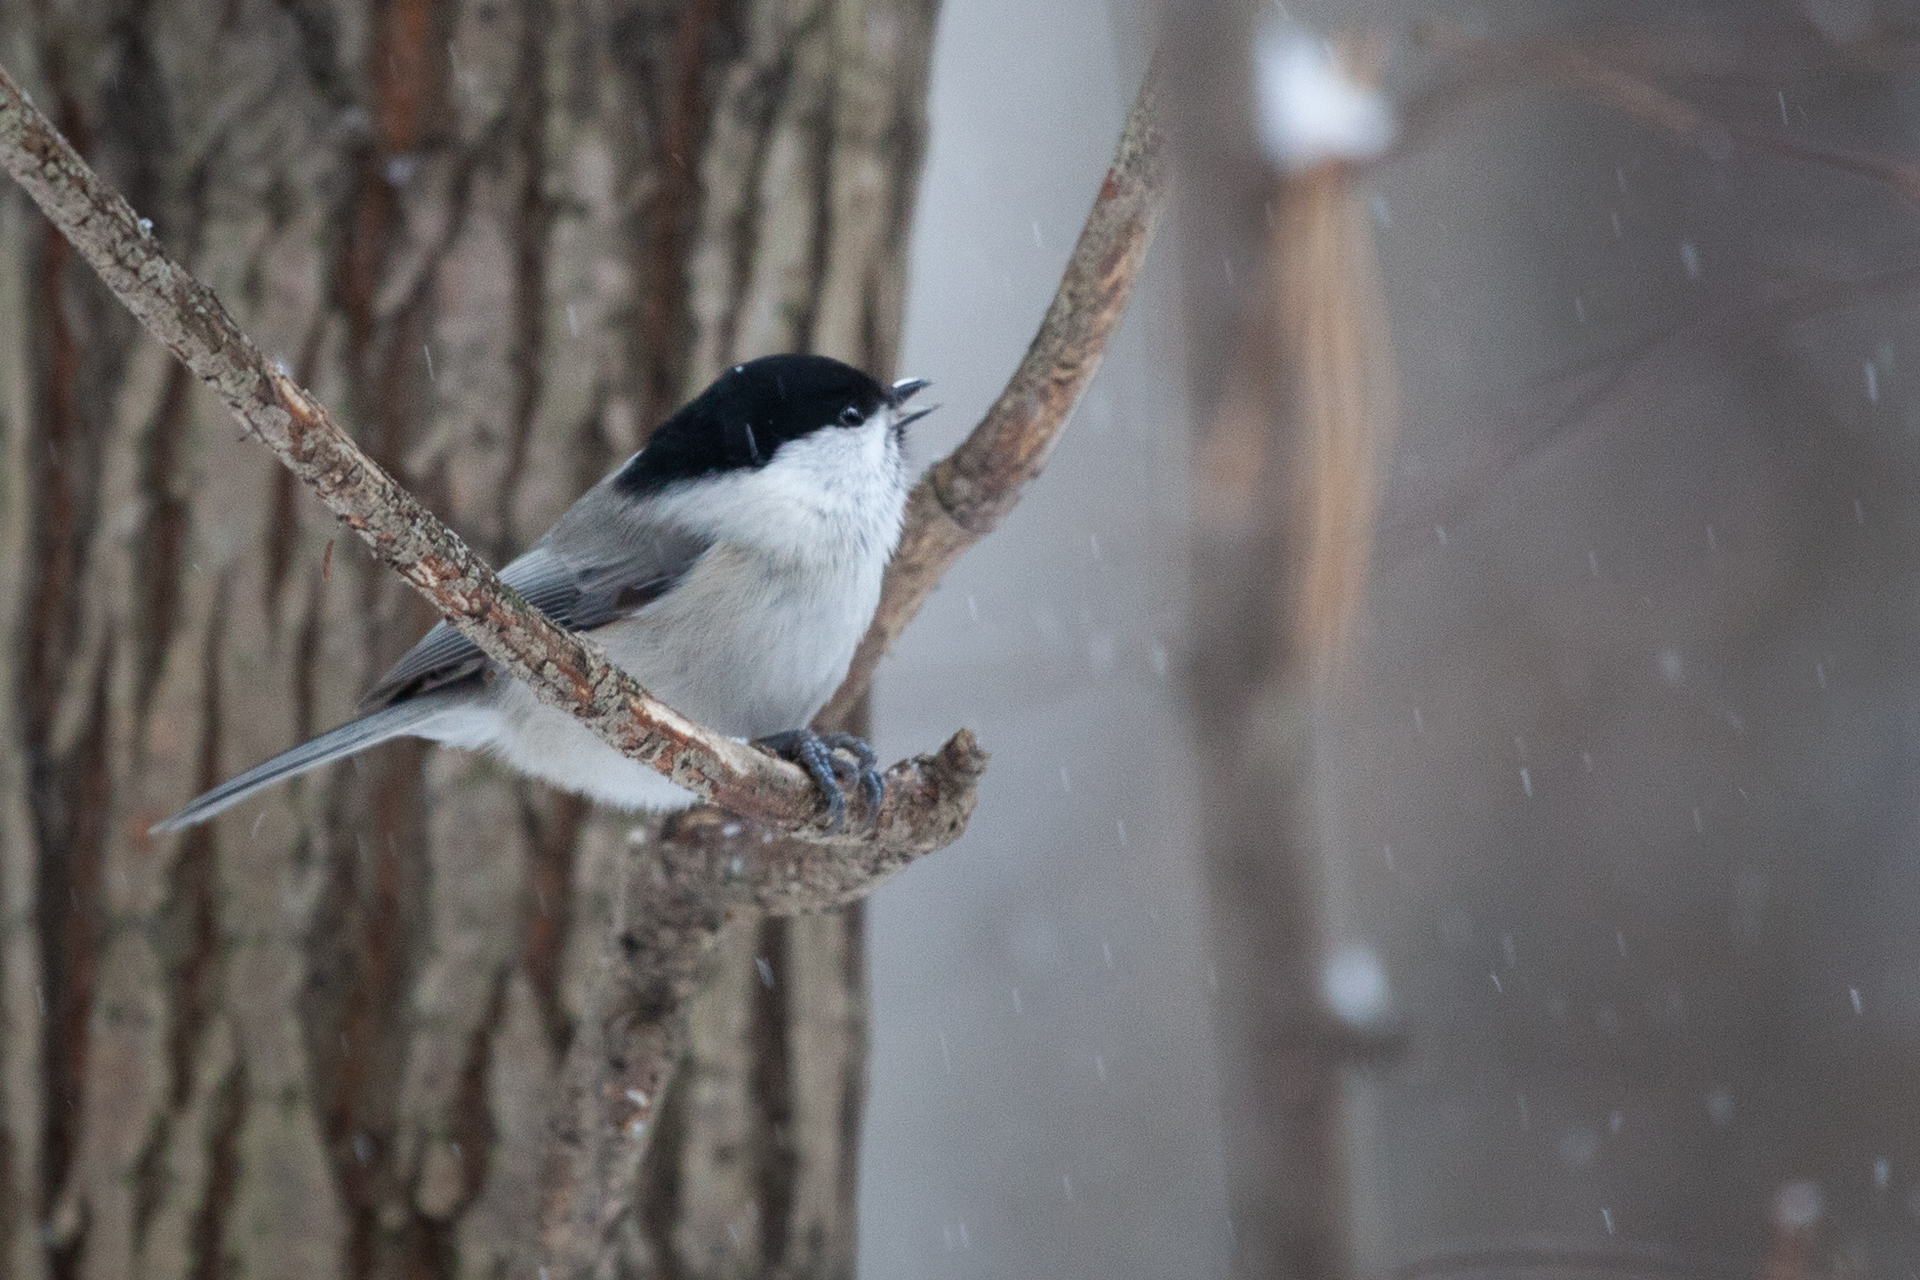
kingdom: Animalia
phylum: Chordata
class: Aves
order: Passeriformes
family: Paridae
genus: Poecile
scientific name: Poecile montanus
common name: Willow tit
